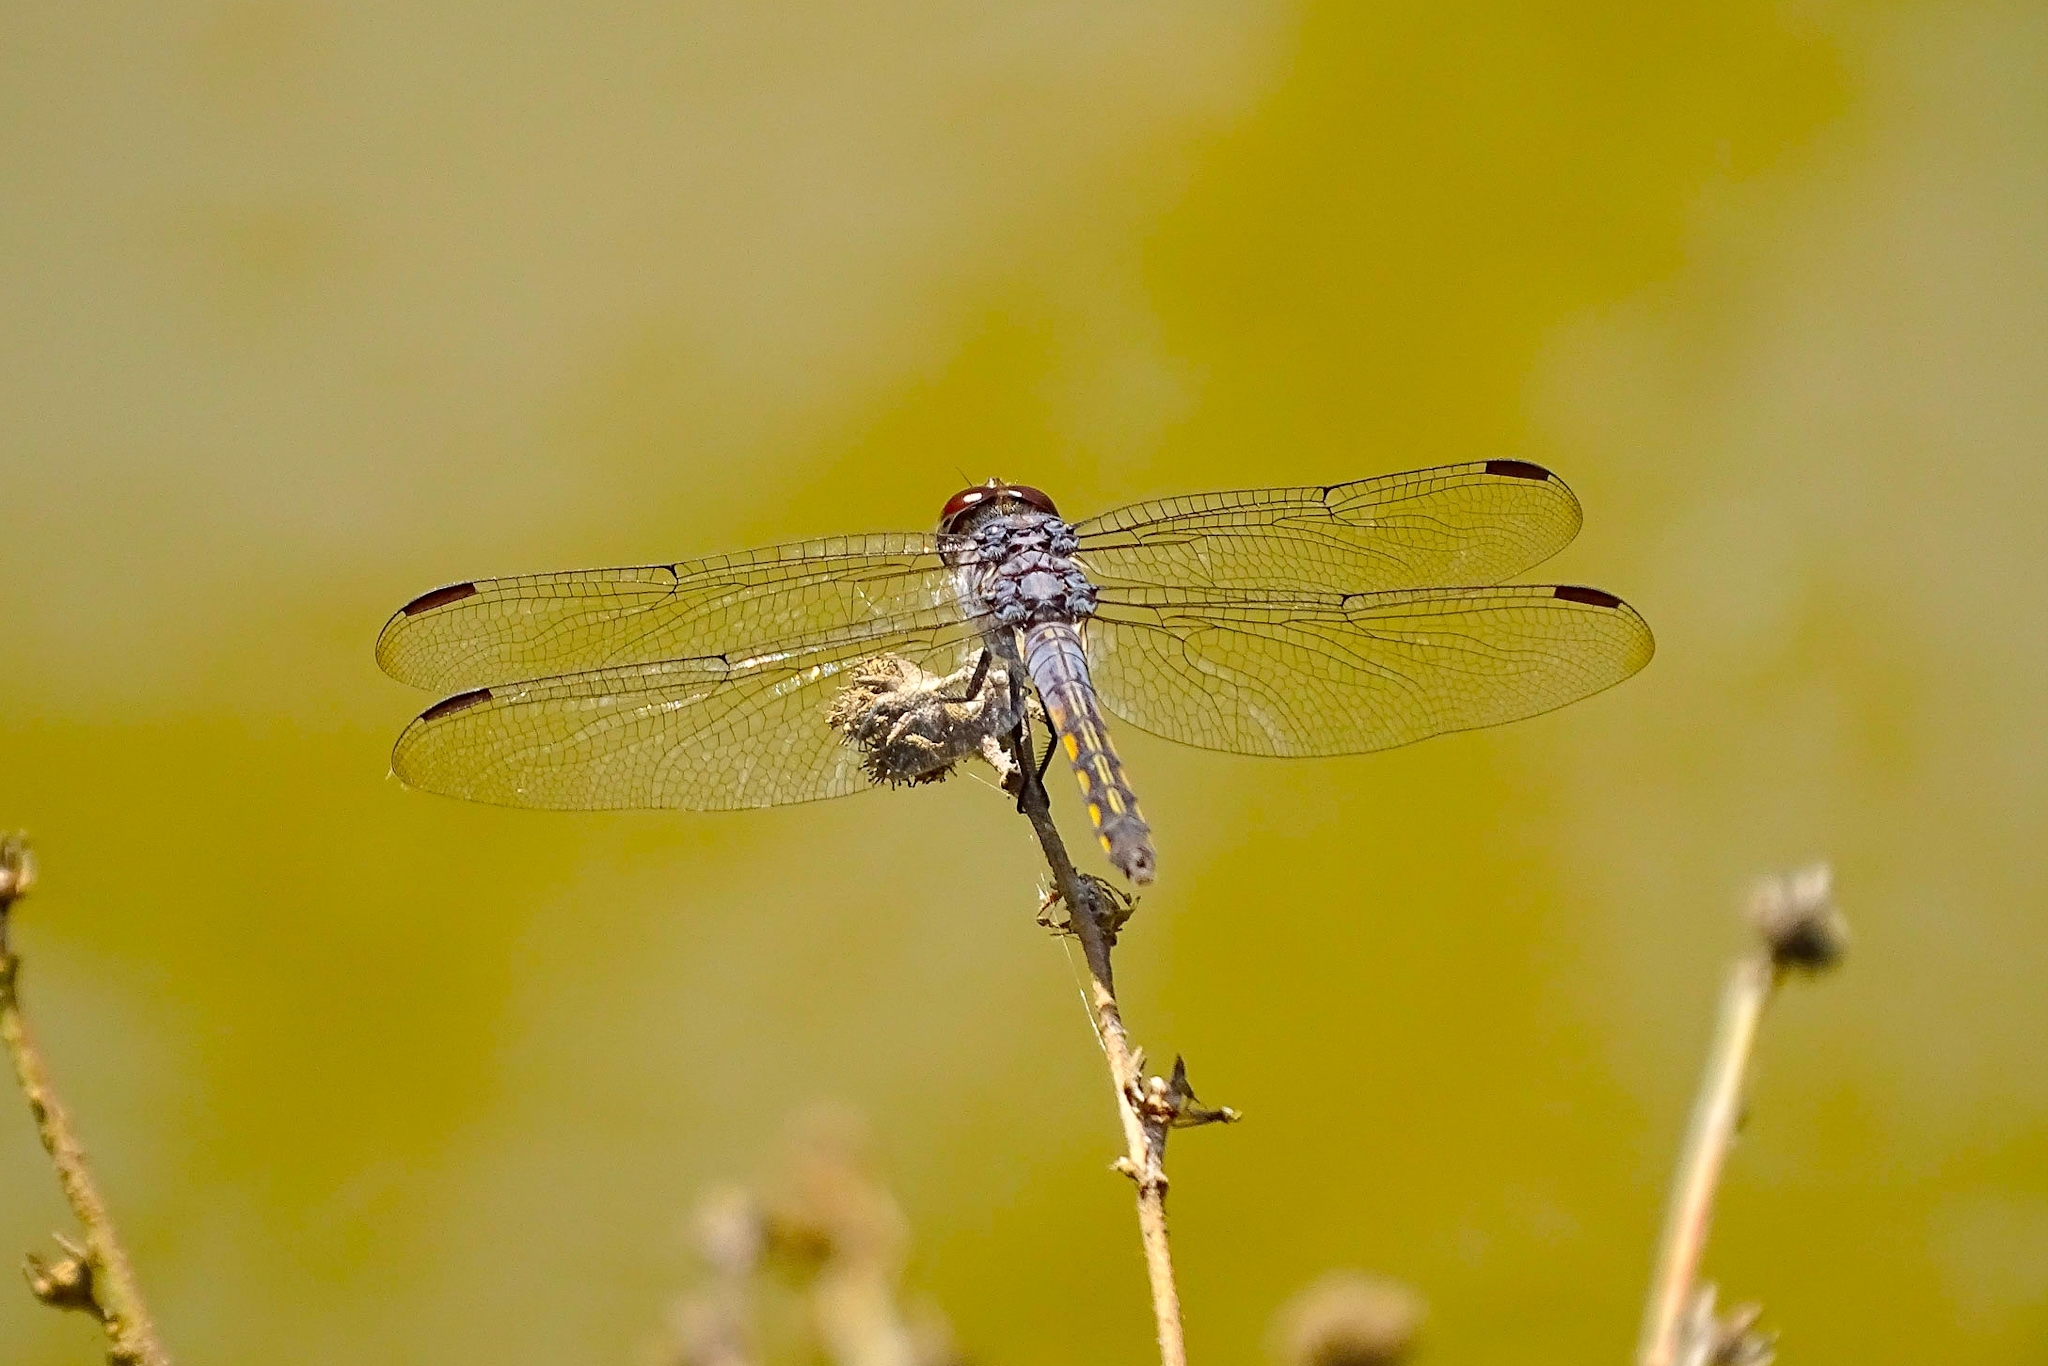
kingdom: Animalia
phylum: Arthropoda
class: Insecta
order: Odonata
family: Libellulidae
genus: Potamarcha
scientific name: Potamarcha congener
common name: Blue chaser
